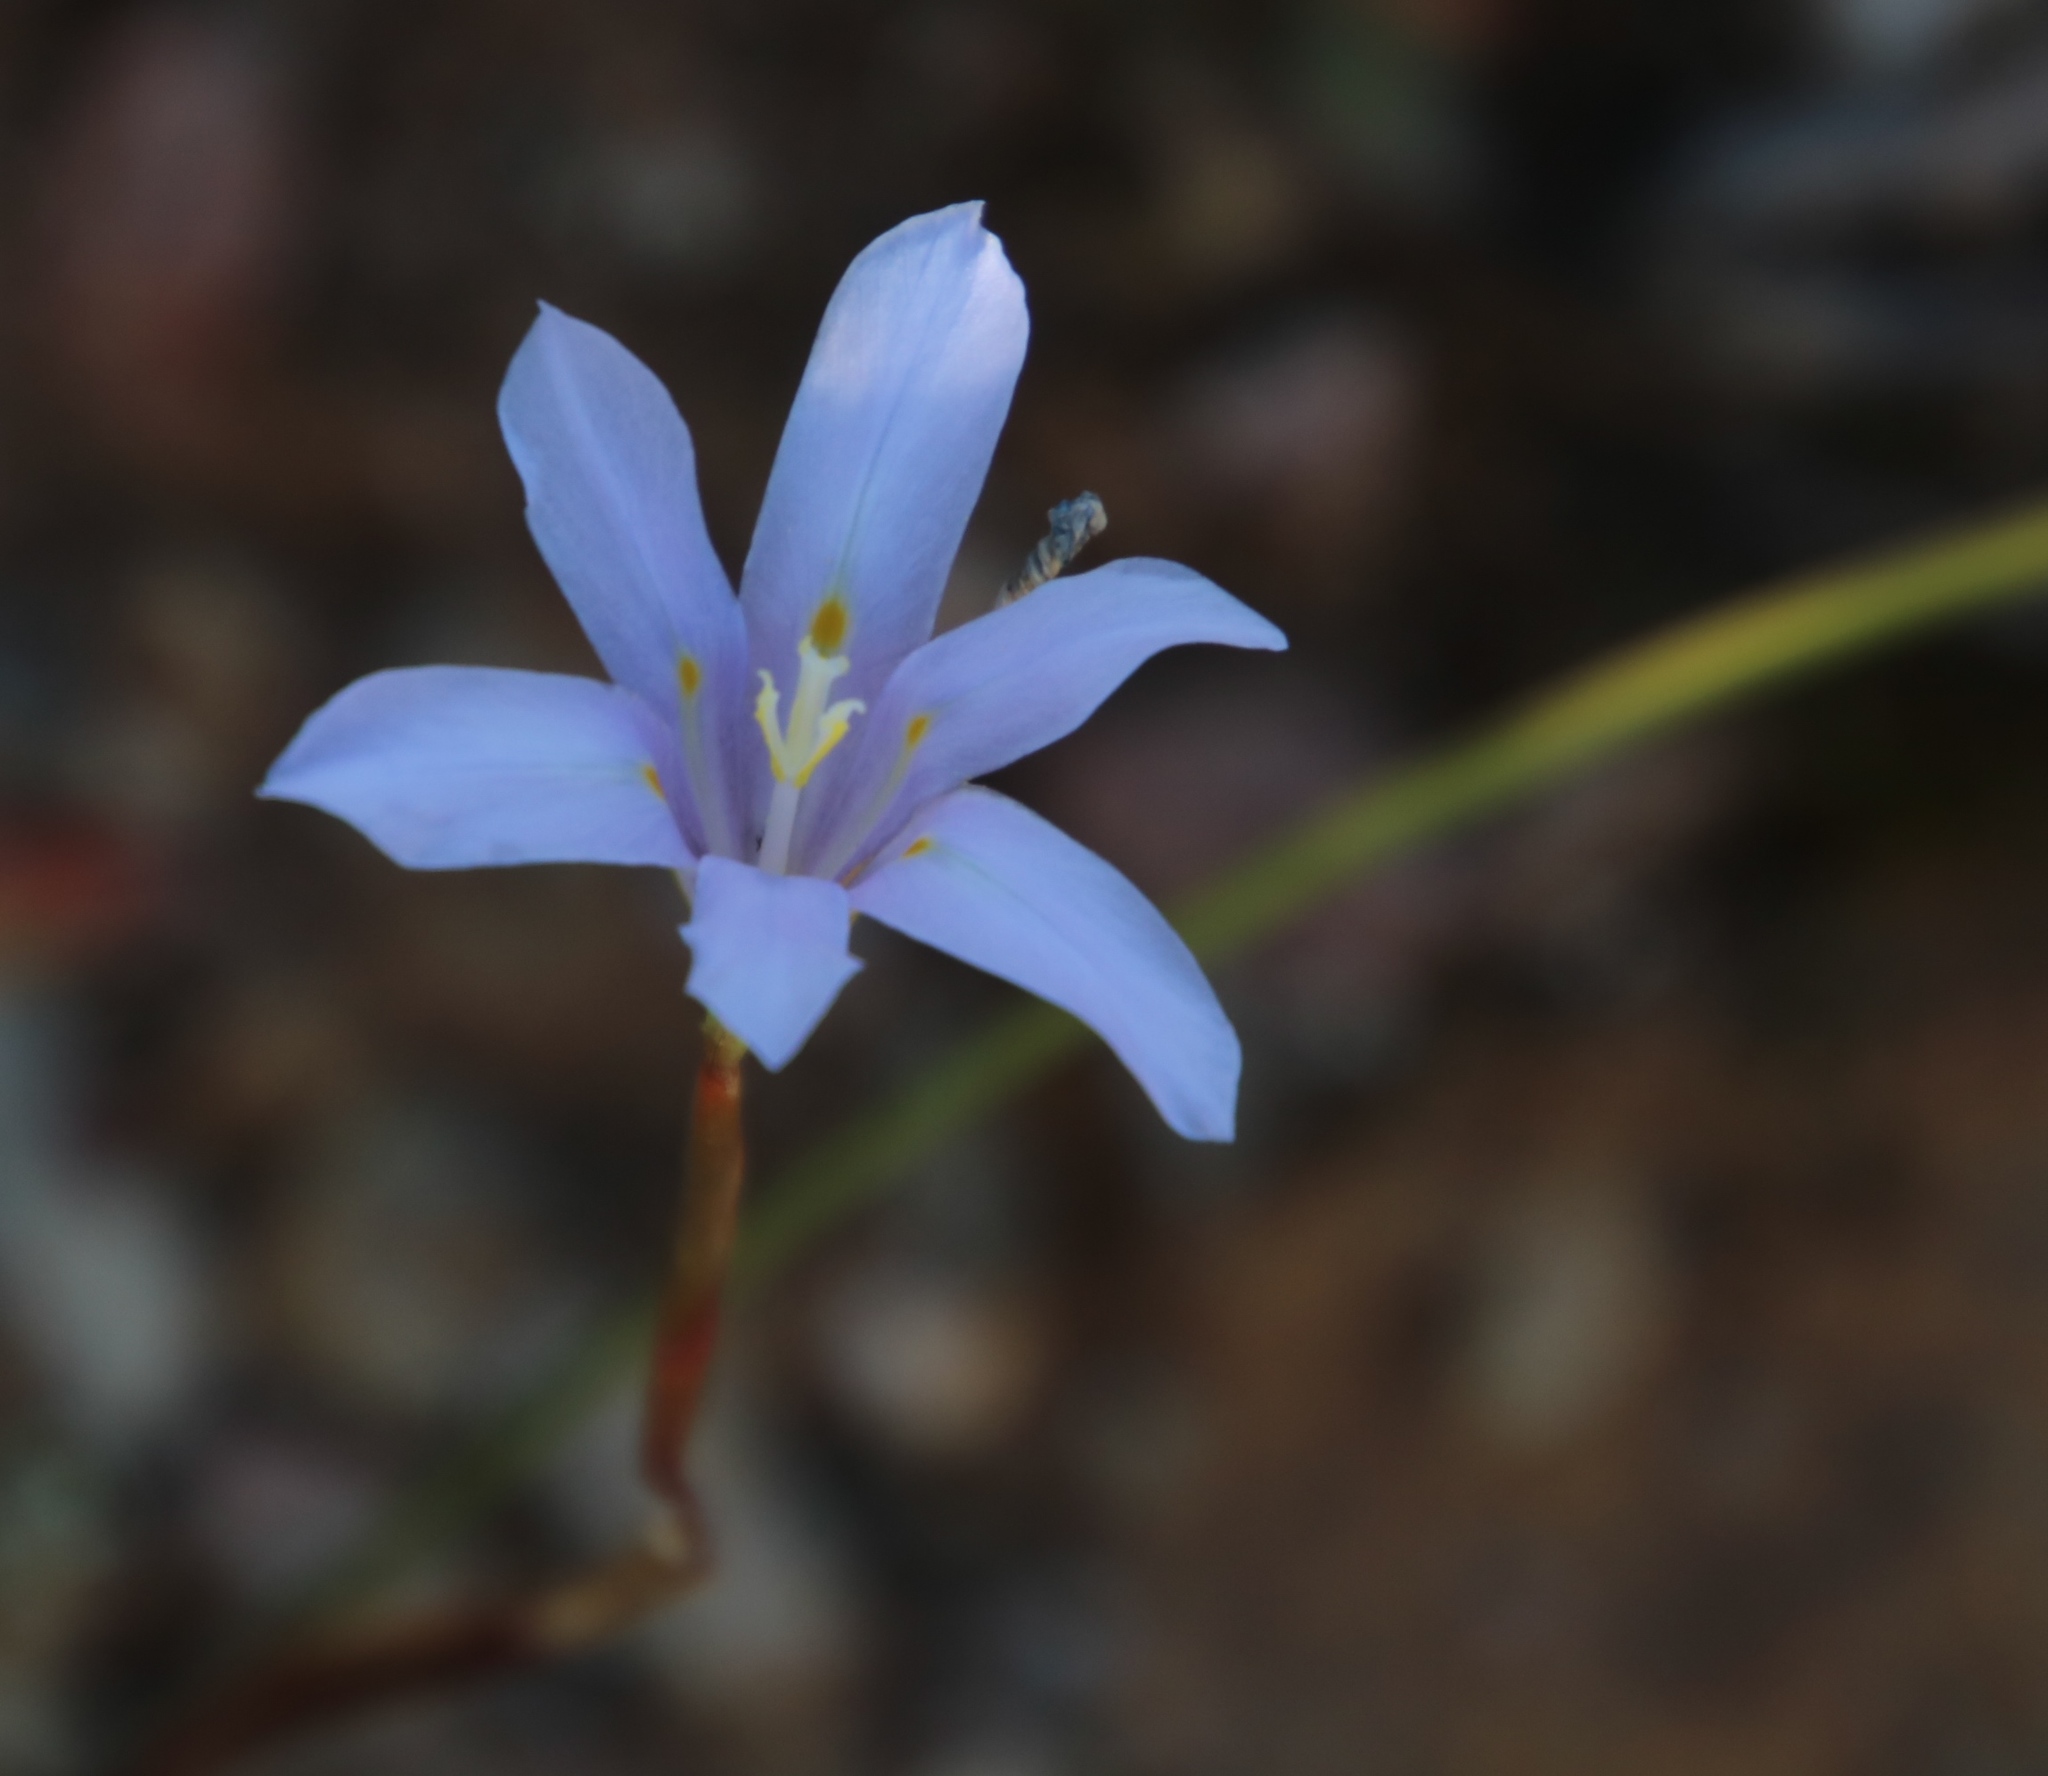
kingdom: Plantae
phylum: Tracheophyta
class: Liliopsida
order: Asparagales
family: Iridaceae
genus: Moraea
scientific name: Moraea polyanthos
